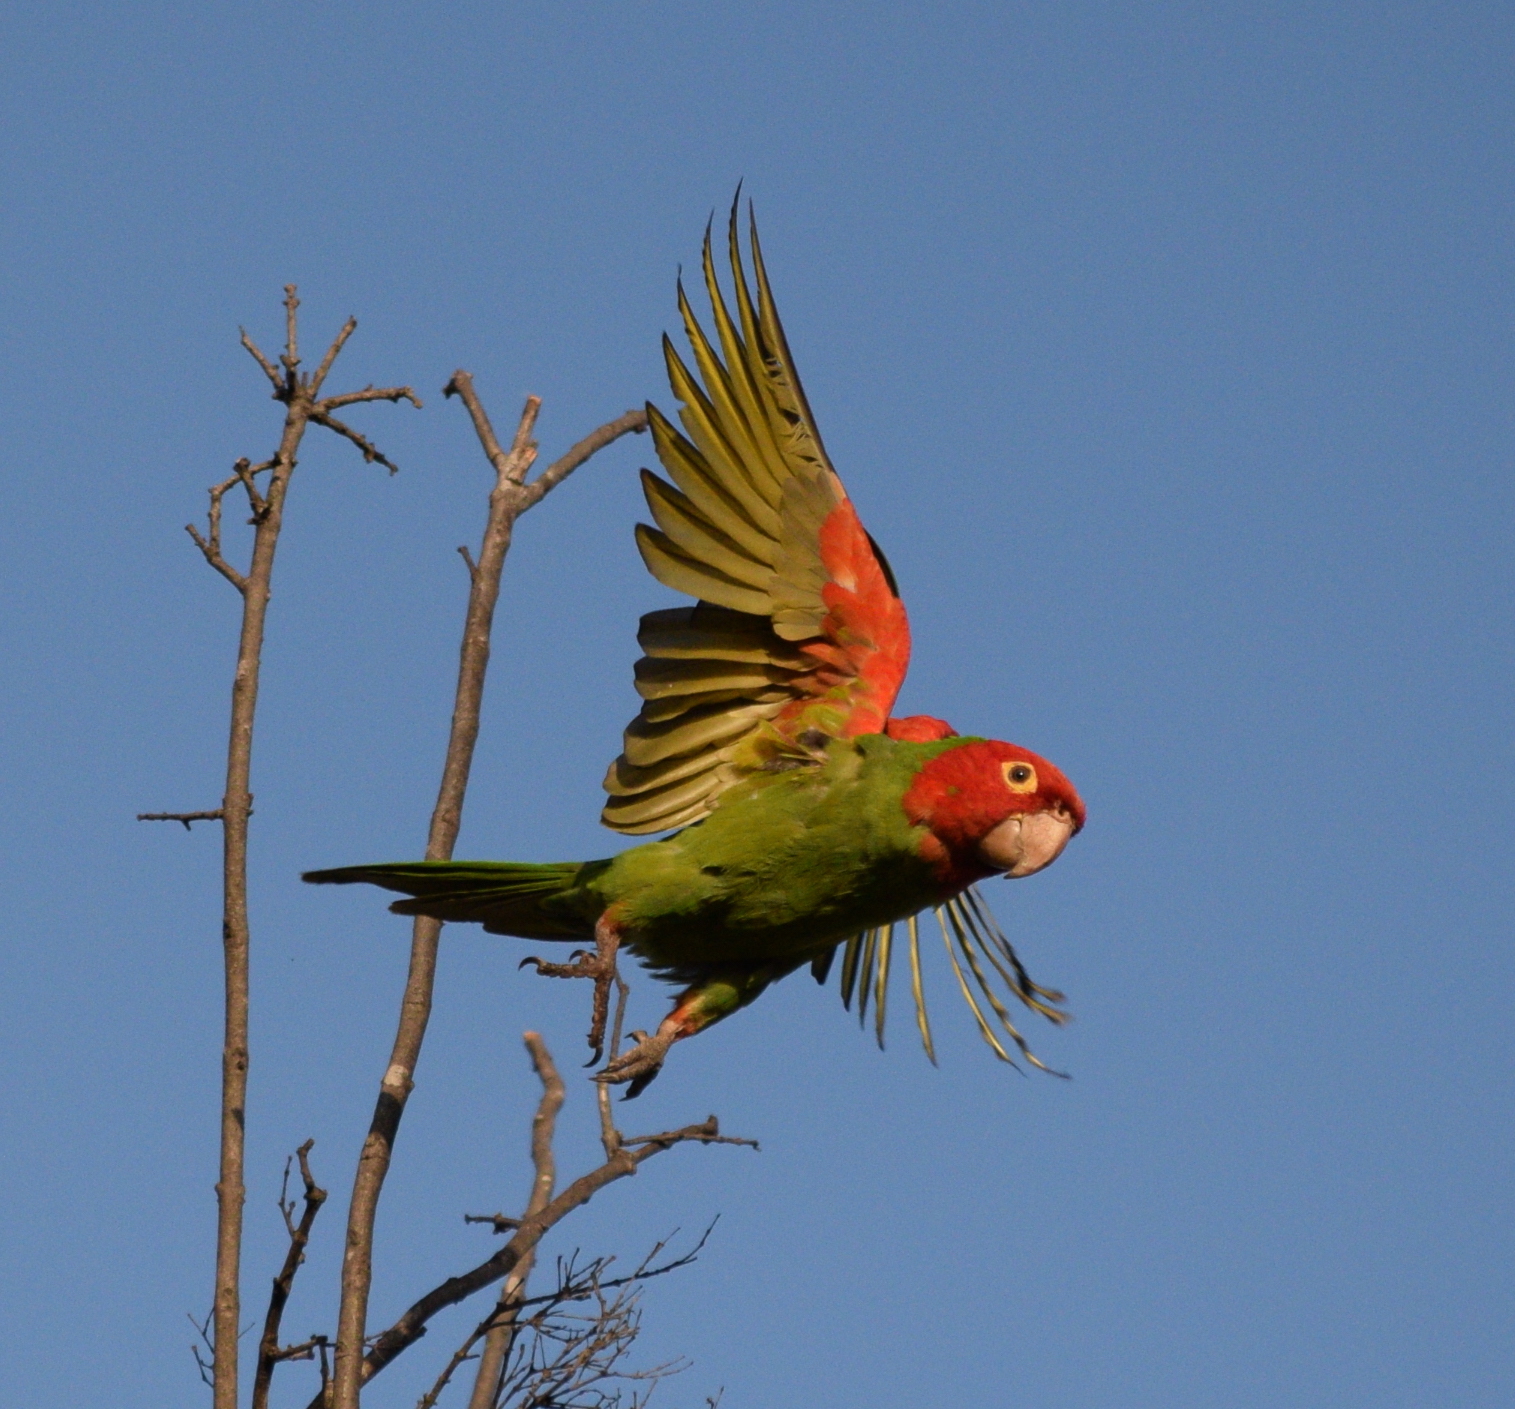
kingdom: Animalia
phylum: Chordata
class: Aves
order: Psittaciformes
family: Psittacidae
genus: Aratinga
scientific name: Aratinga erythrogenys
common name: Red-masked parakeet
